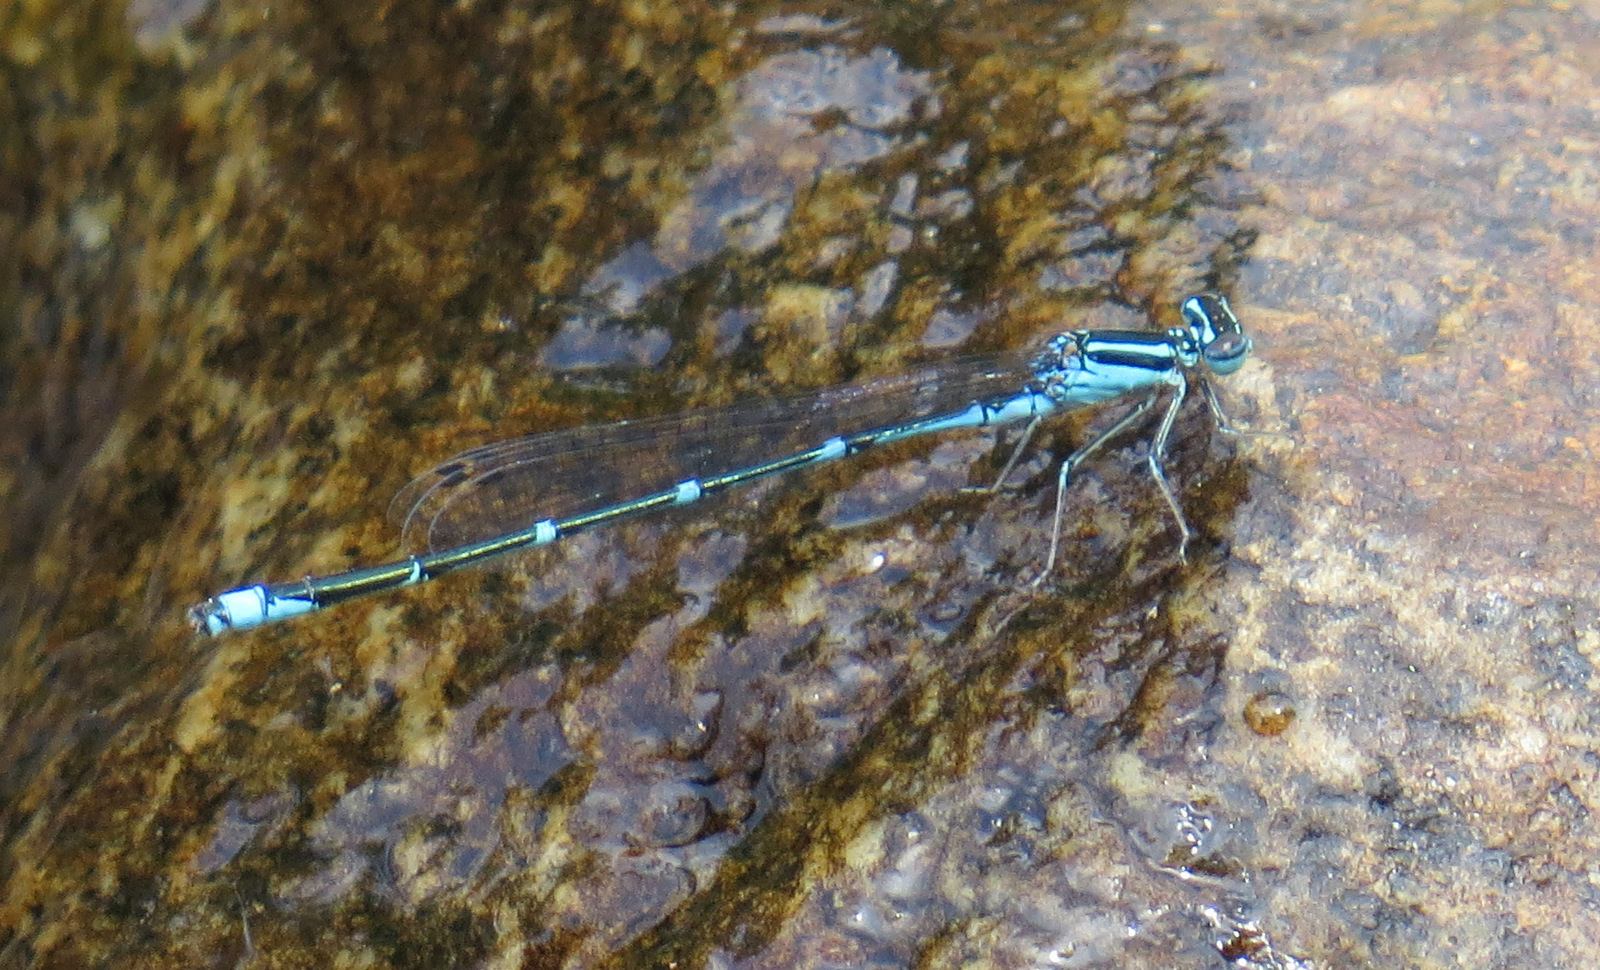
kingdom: Animalia
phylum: Arthropoda
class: Insecta
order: Odonata
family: Coenagrionidae
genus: Enallagma
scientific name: Enallagma exsulans
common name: Stream bluet
